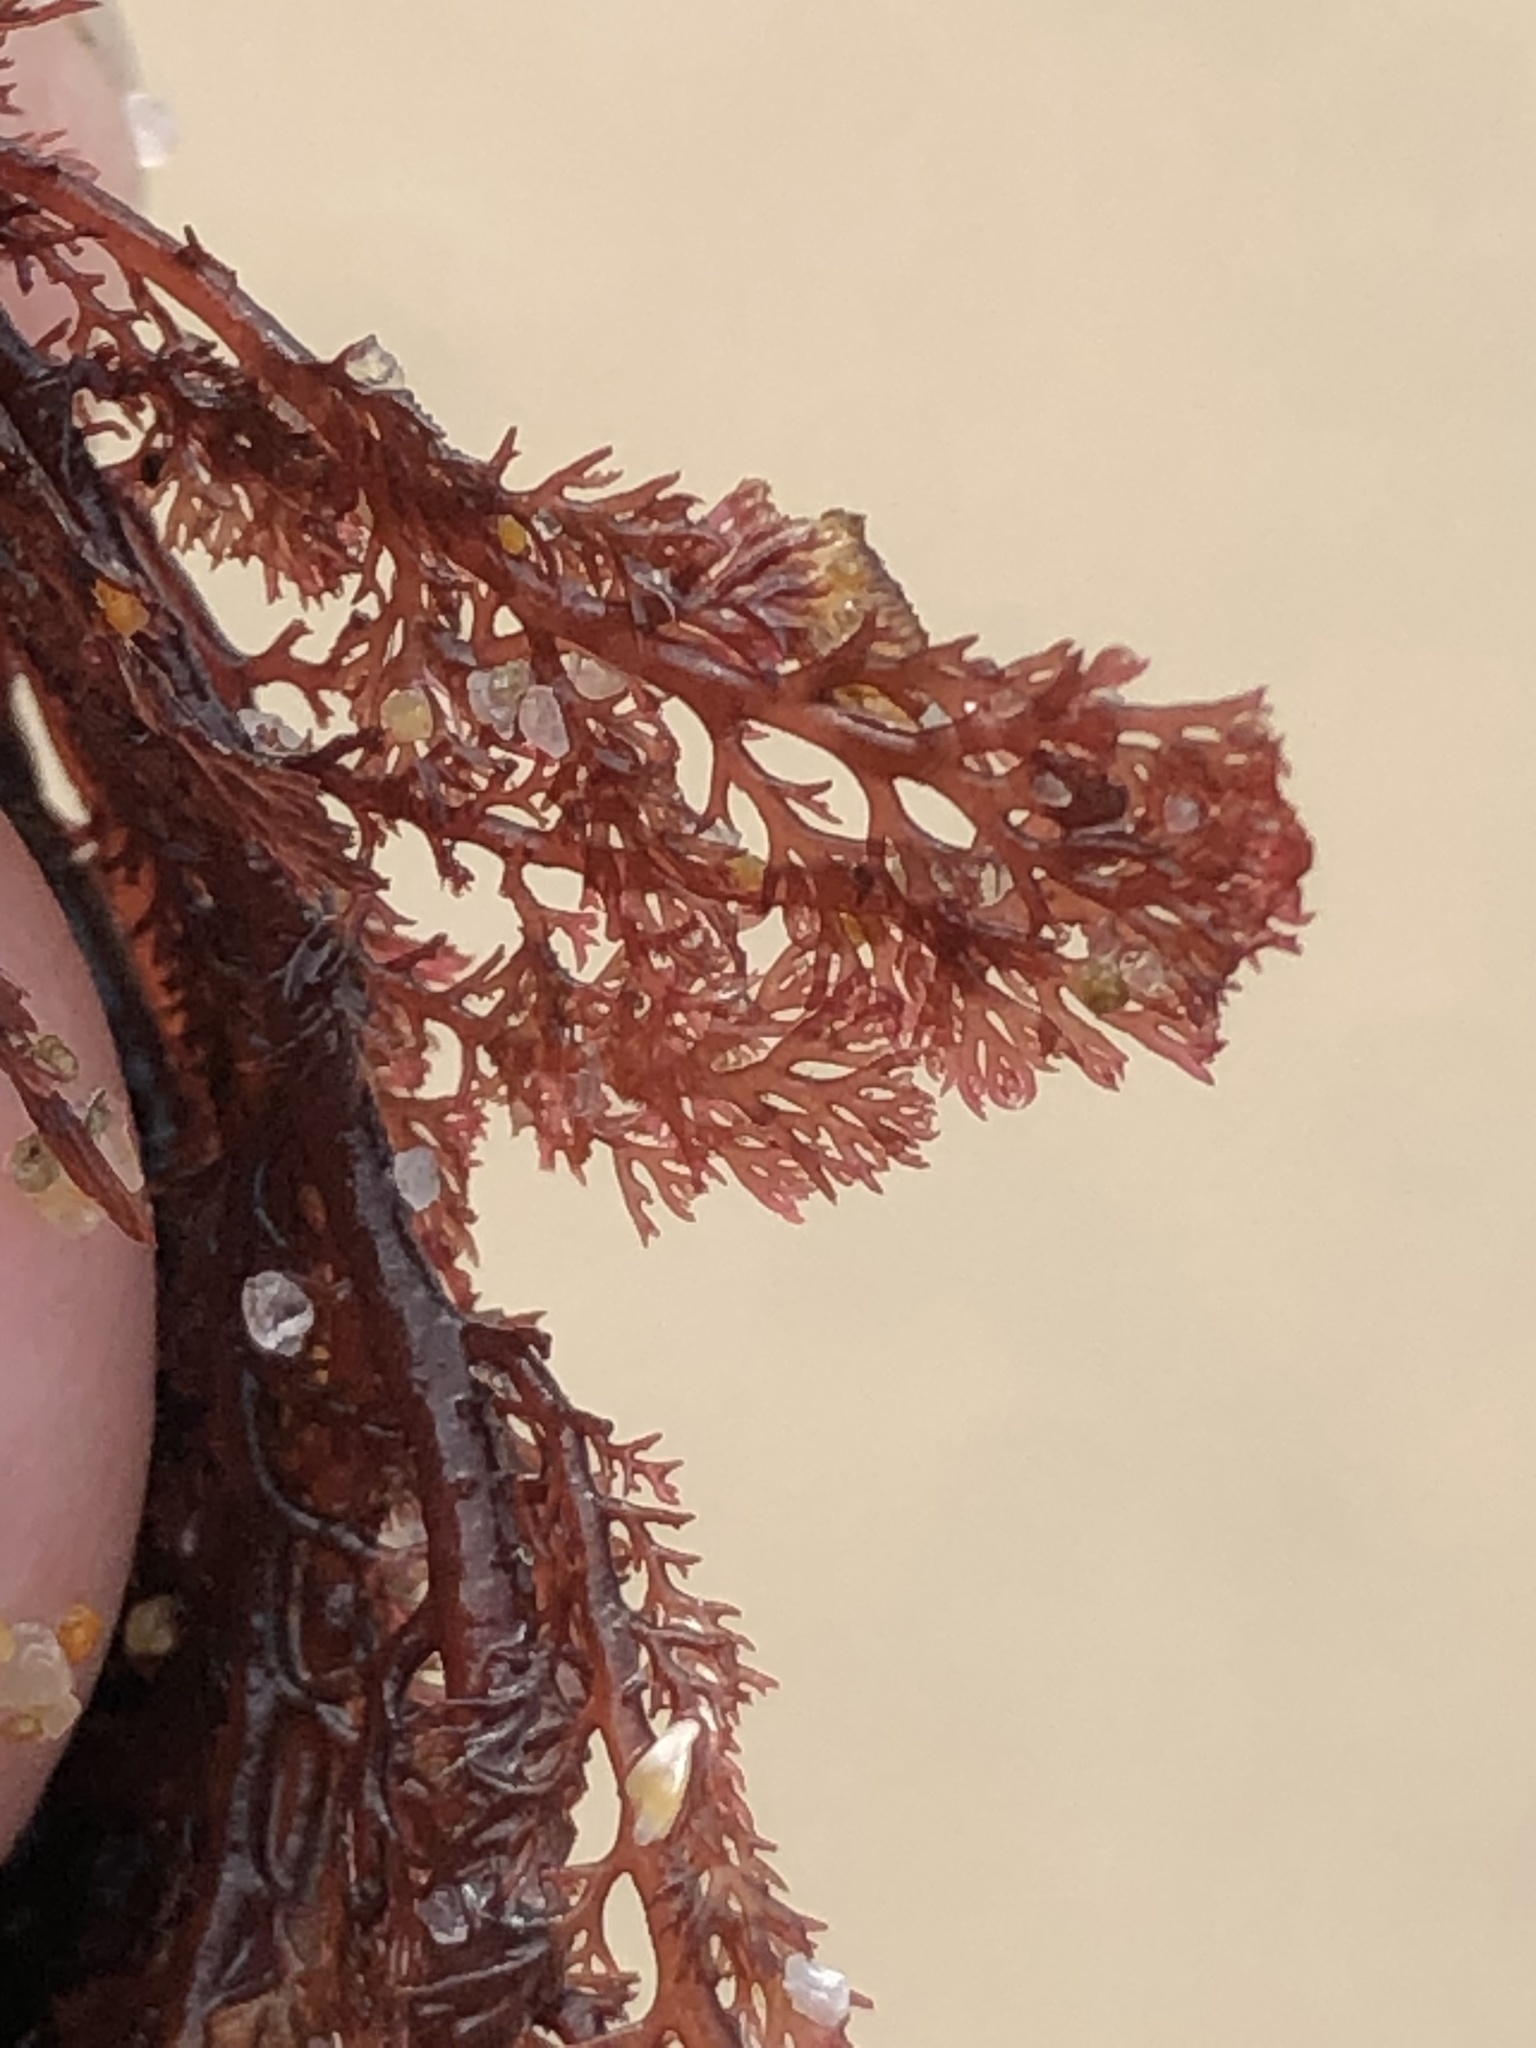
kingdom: Plantae
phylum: Rhodophyta
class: Florideophyceae
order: Ceramiales
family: Ceramiaceae
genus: Microcladia
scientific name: Microcladia coulteri
